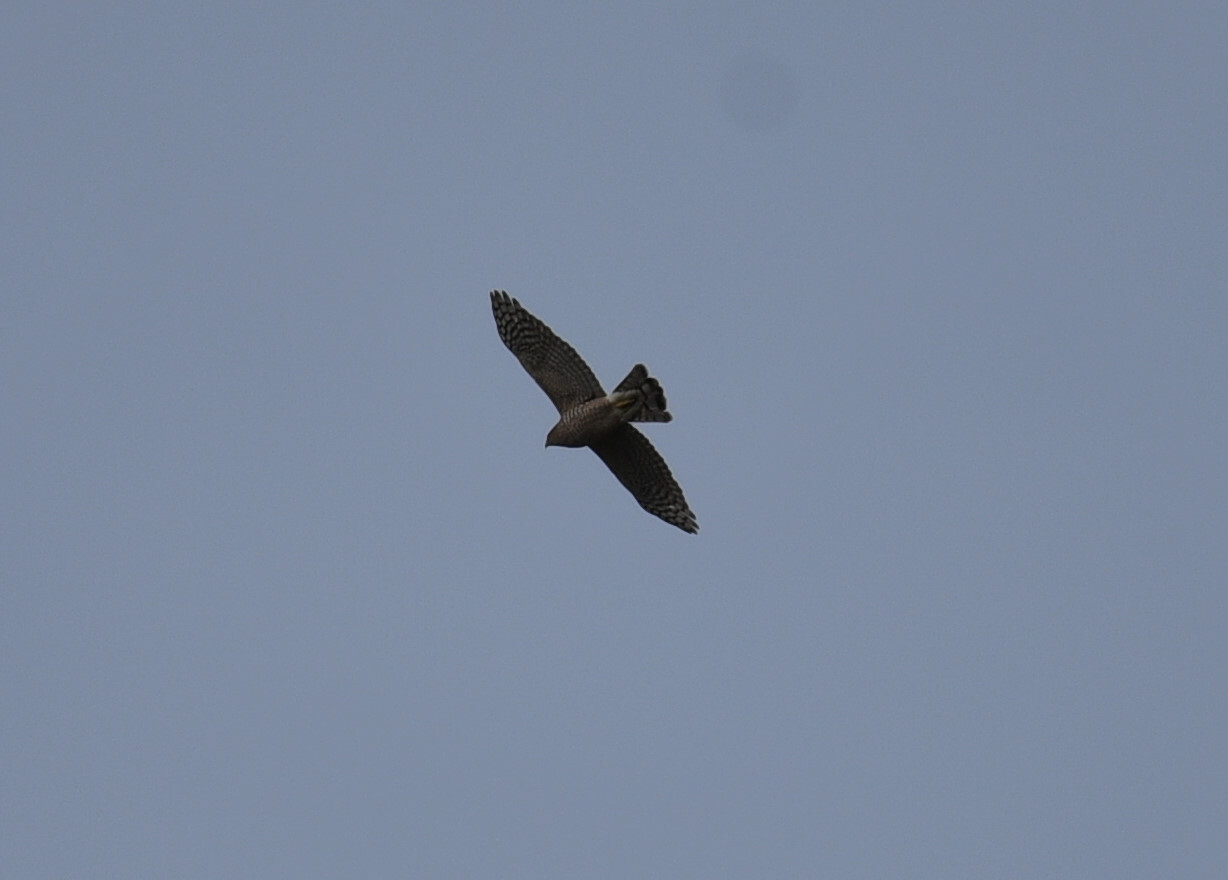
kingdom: Animalia
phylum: Chordata
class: Aves
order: Accipitriformes
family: Accipitridae
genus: Accipiter
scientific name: Accipiter cooperii
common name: Cooper's hawk
